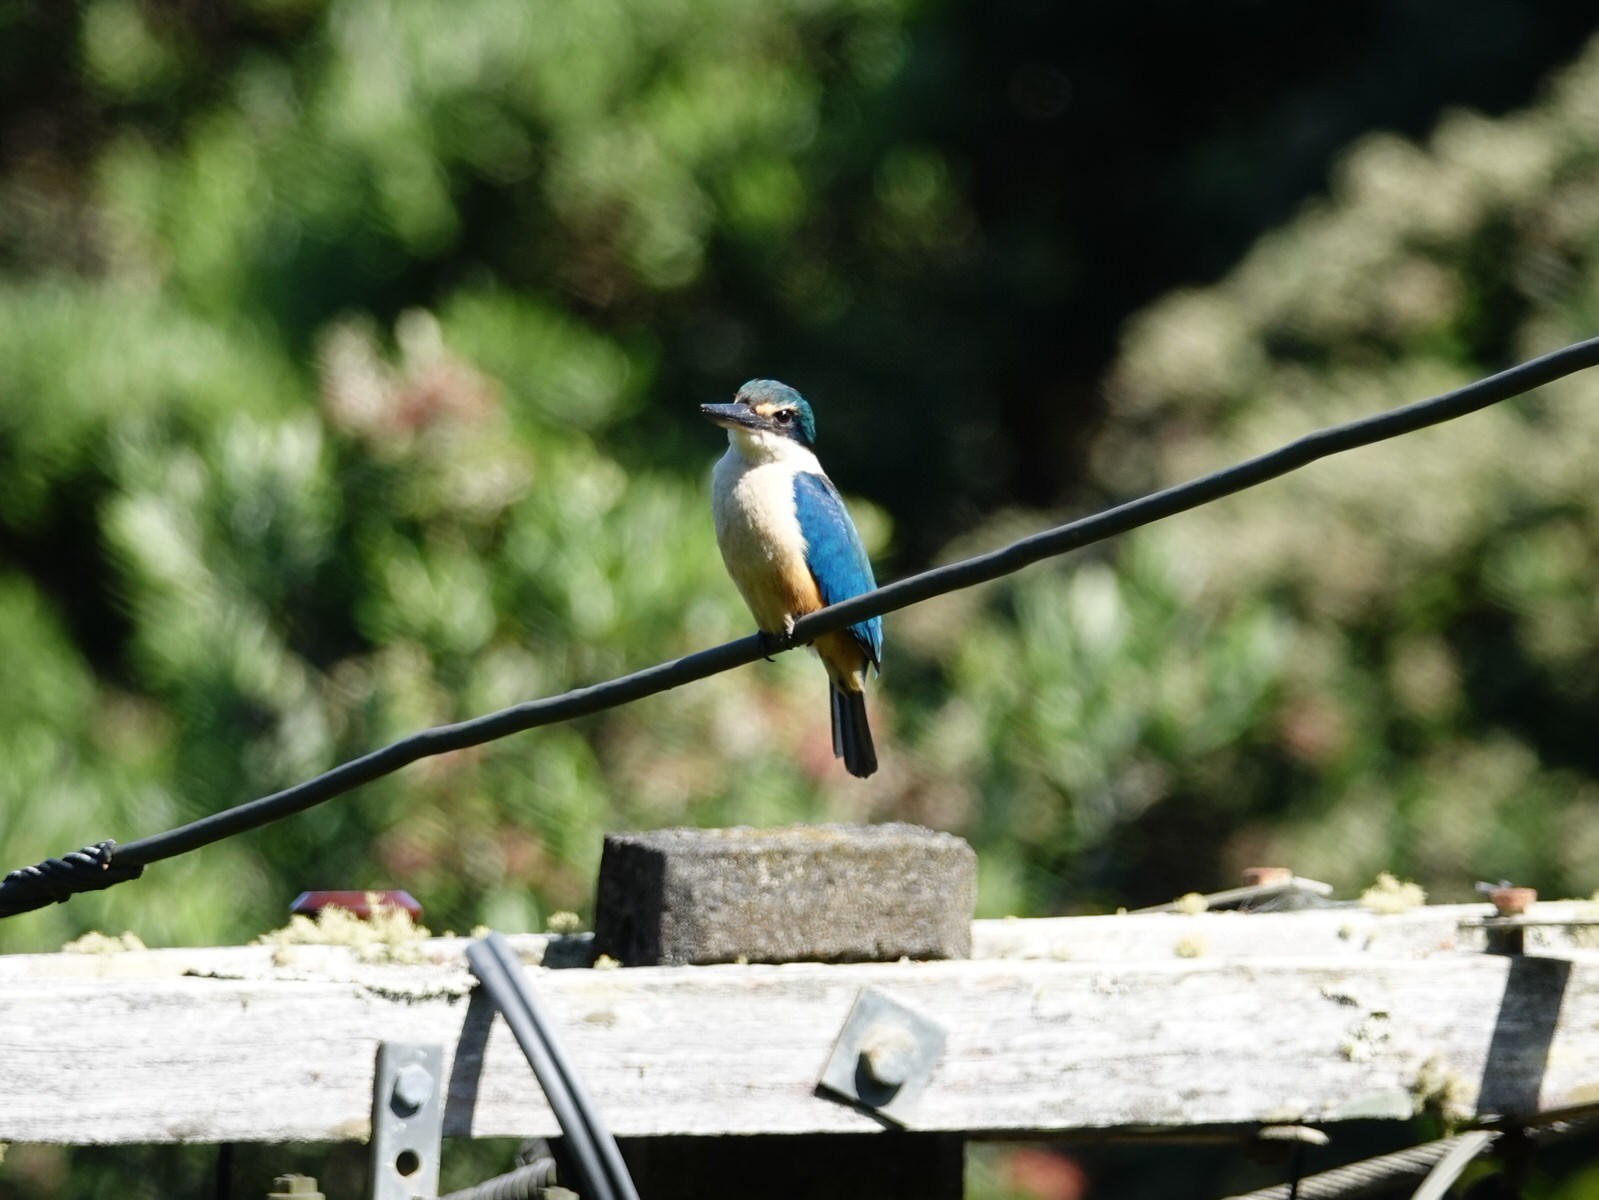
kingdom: Animalia
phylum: Chordata
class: Aves
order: Coraciiformes
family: Alcedinidae
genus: Todiramphus
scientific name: Todiramphus sanctus
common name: Sacred kingfisher
